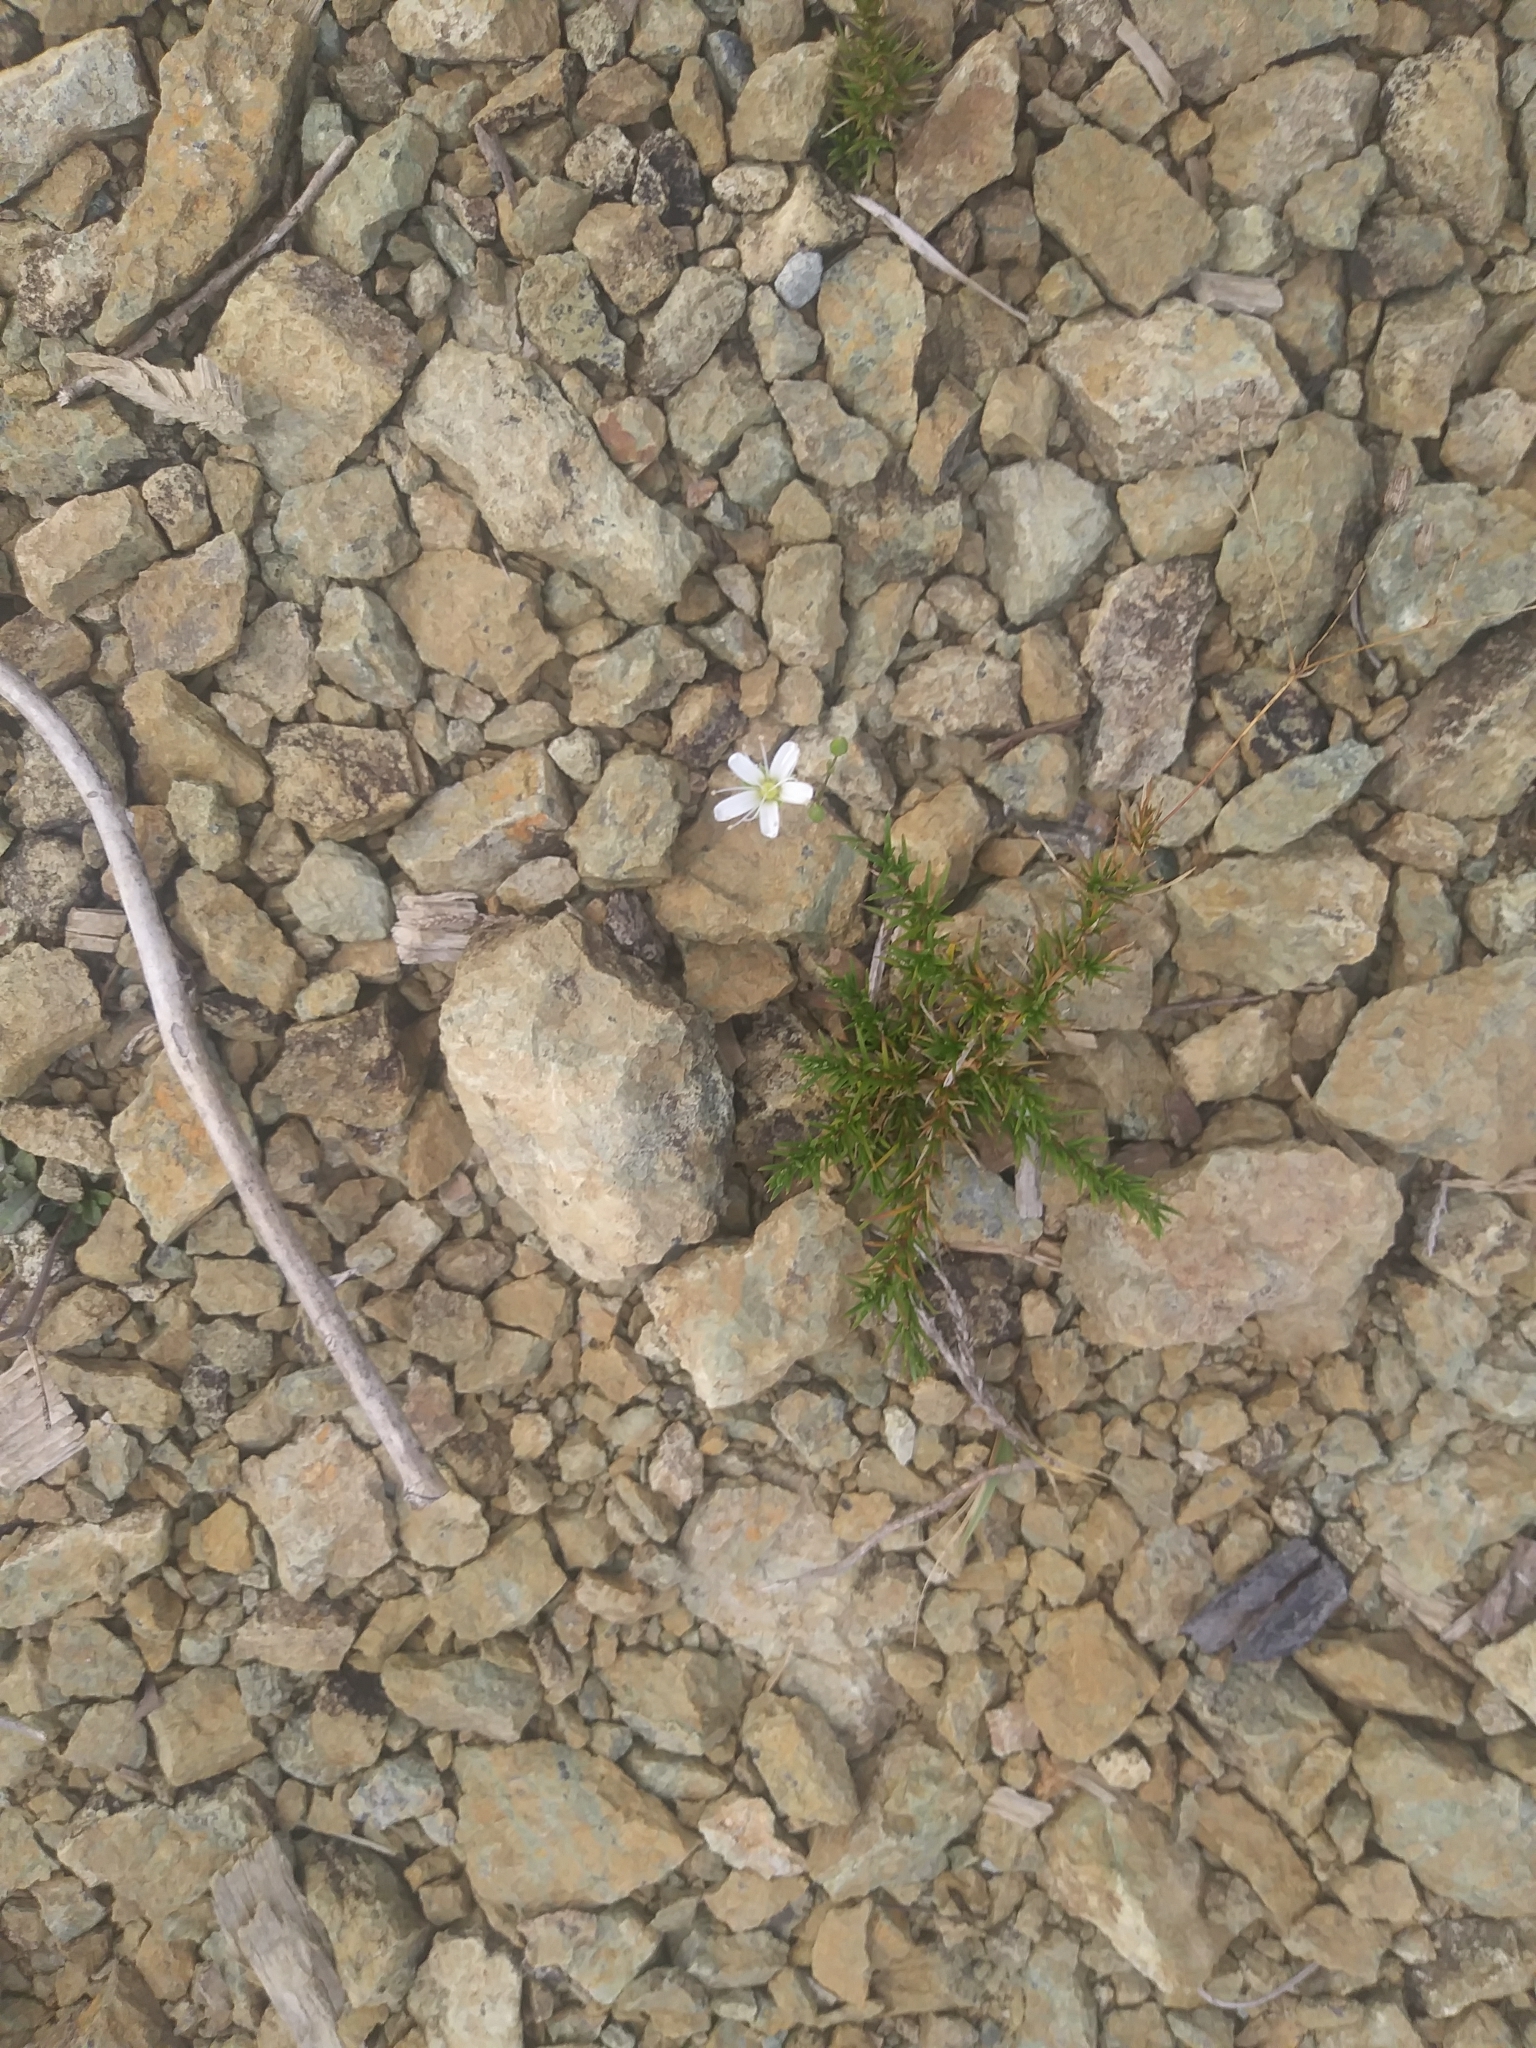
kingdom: Plantae
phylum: Tracheophyta
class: Magnoliopsida
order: Caryophyllales
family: Caryophyllaceae
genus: Sabulina
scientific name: Sabulina michauxii
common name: Michaux's stitchwort
